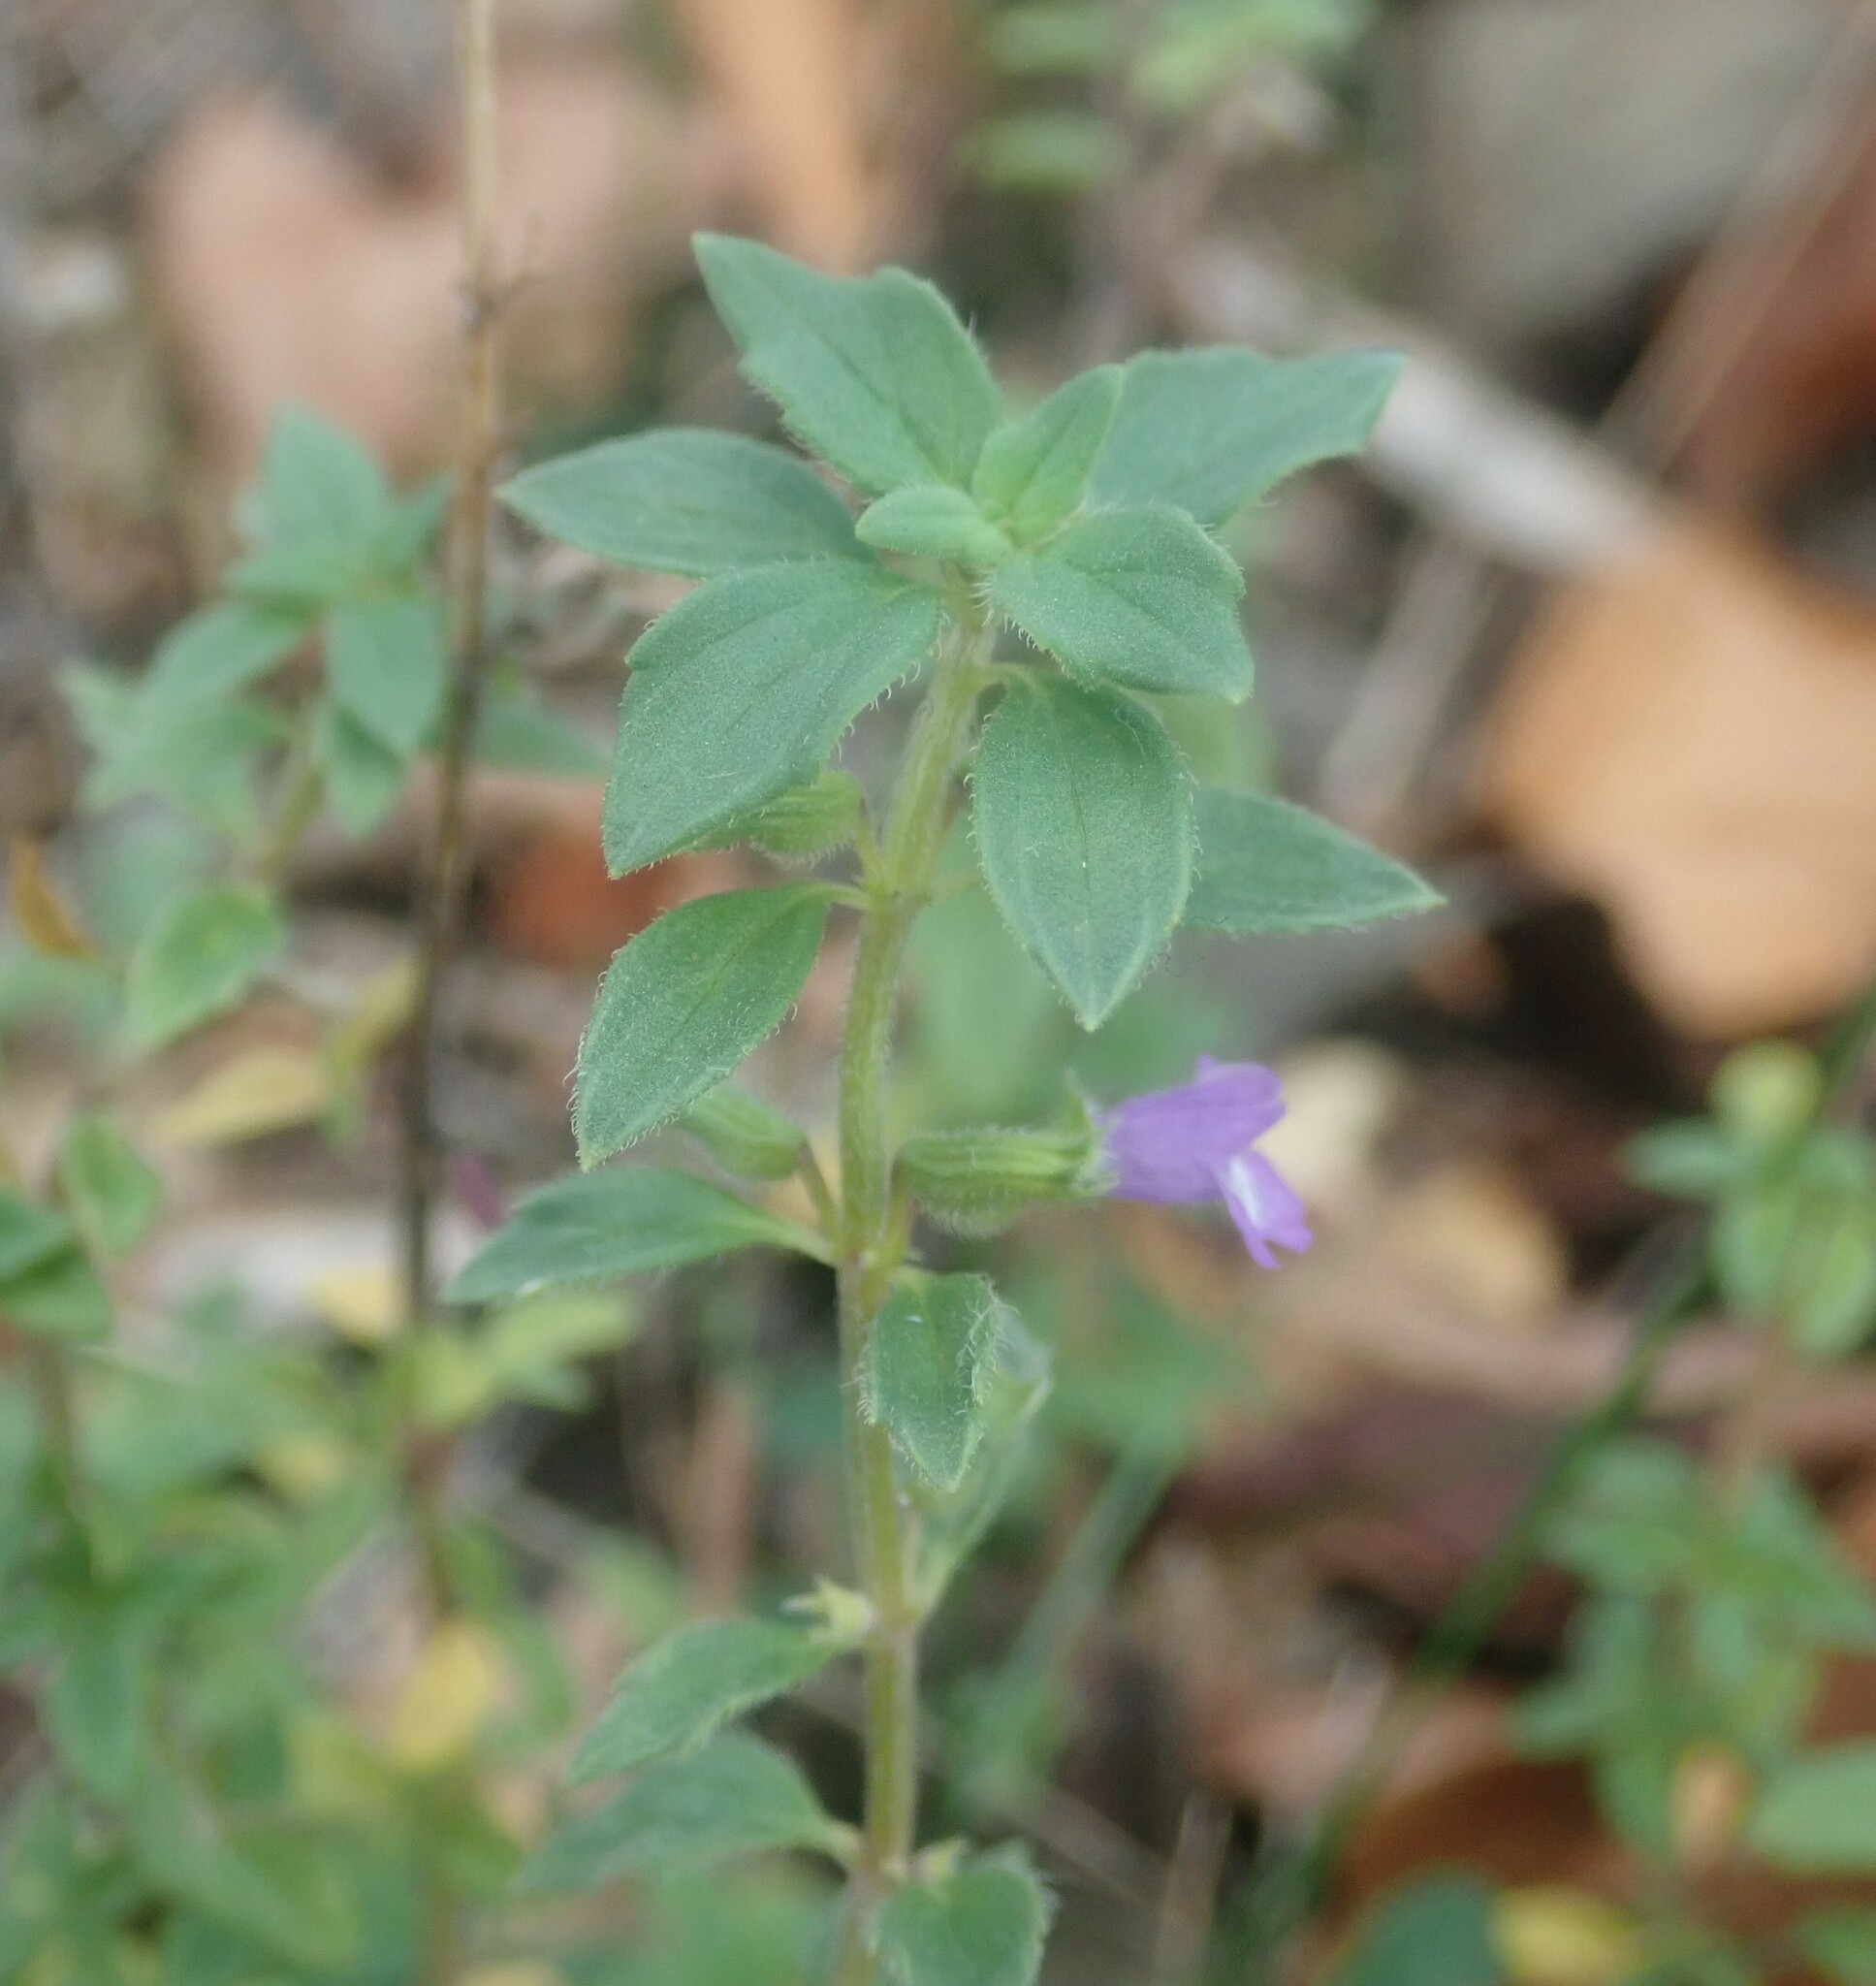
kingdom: Plantae
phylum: Tracheophyta
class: Magnoliopsida
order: Lamiales
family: Lamiaceae
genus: Clinopodium
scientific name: Clinopodium acinos
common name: Basil thyme
